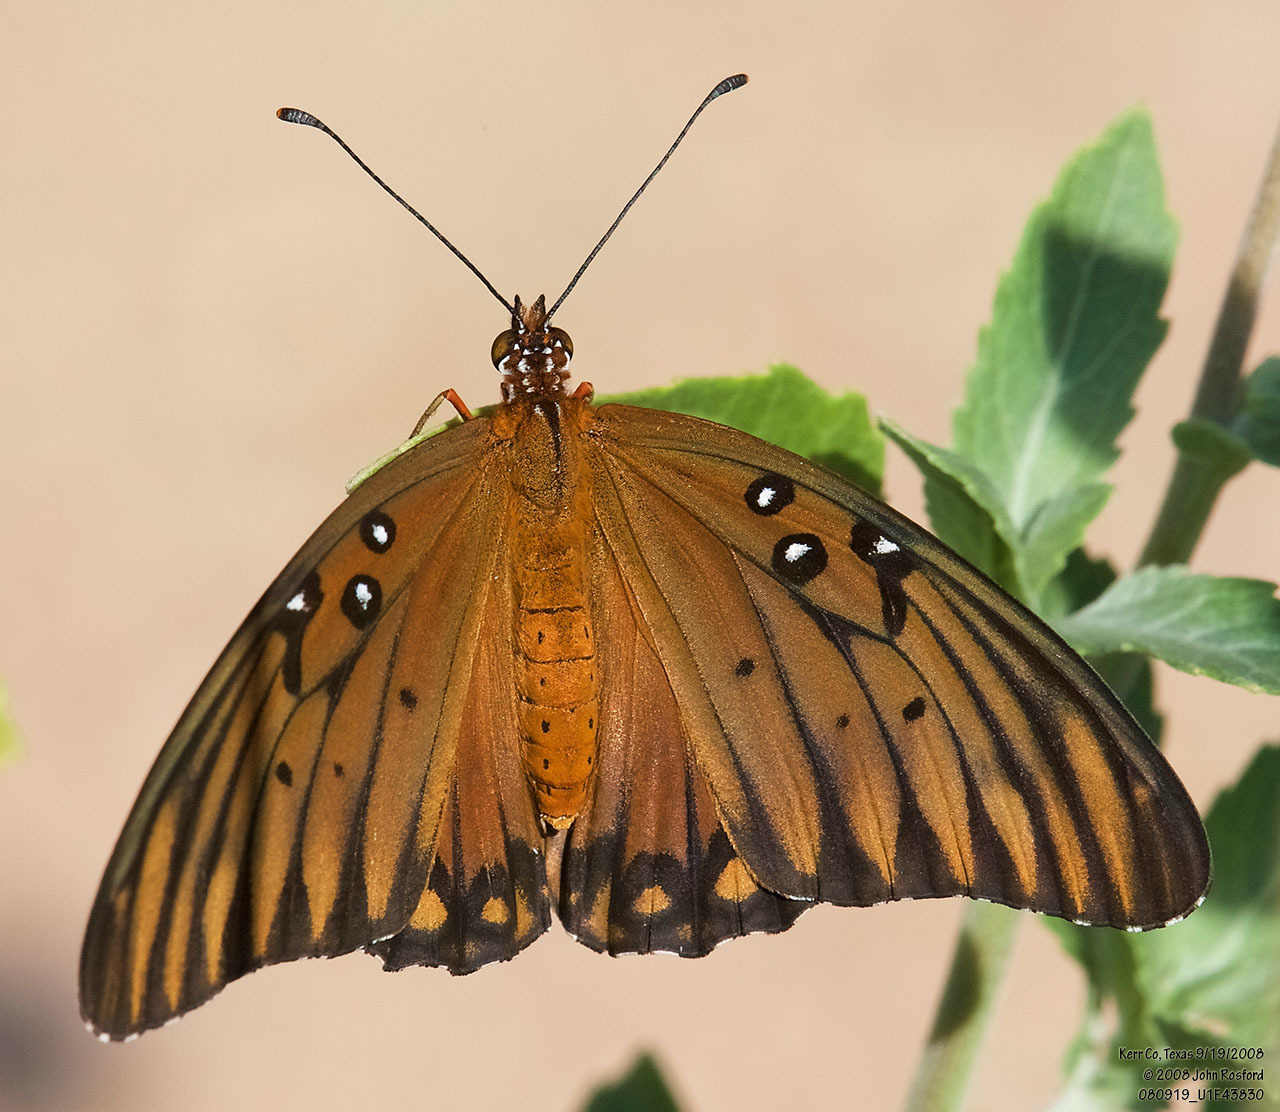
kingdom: Animalia
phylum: Arthropoda
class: Insecta
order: Lepidoptera
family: Nymphalidae
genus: Dione
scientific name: Dione vanillae
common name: Gulf fritillary
